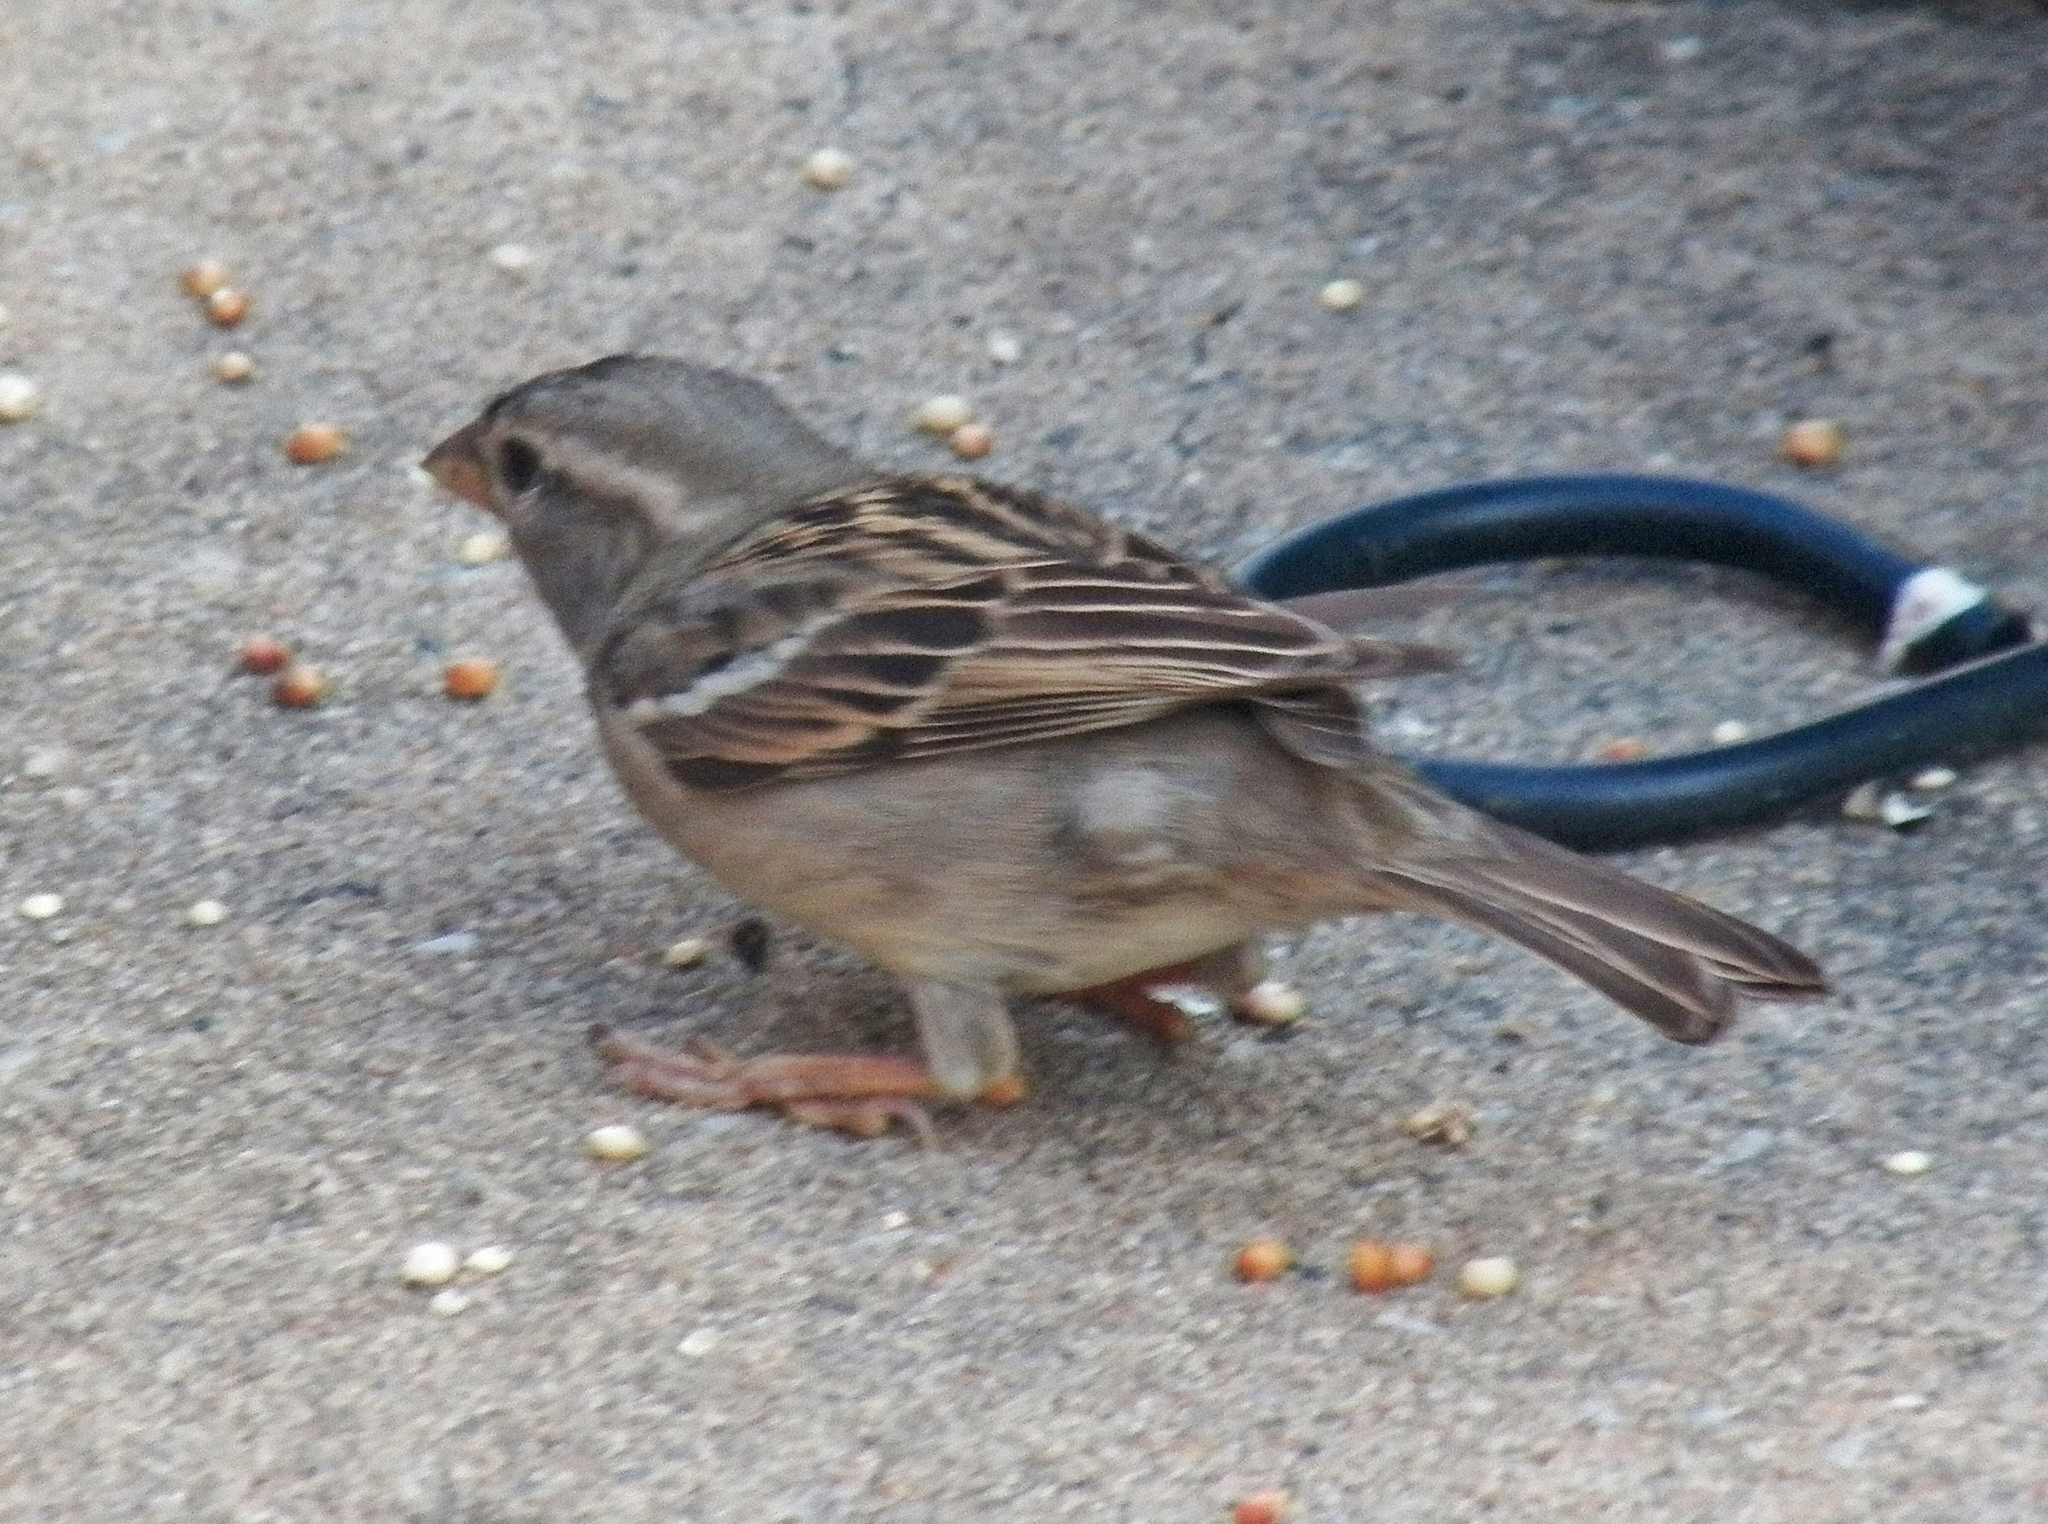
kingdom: Animalia
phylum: Chordata
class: Aves
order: Passeriformes
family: Passeridae
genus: Passer
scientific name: Passer domesticus
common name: House sparrow
